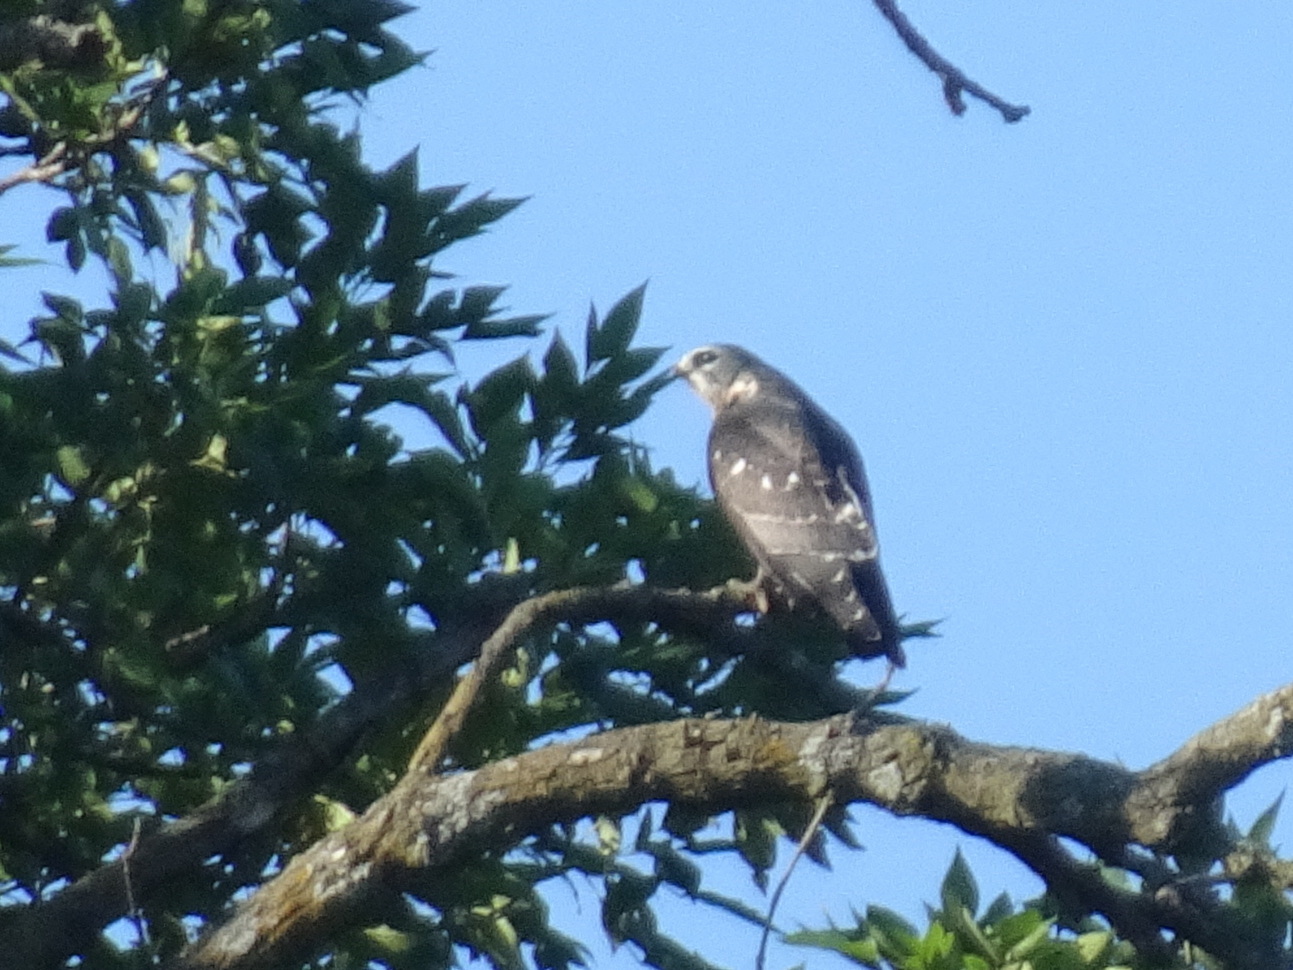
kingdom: Animalia
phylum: Chordata
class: Aves
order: Accipitriformes
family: Accipitridae
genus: Ictinia
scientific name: Ictinia mississippiensis
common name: Mississippi kite
